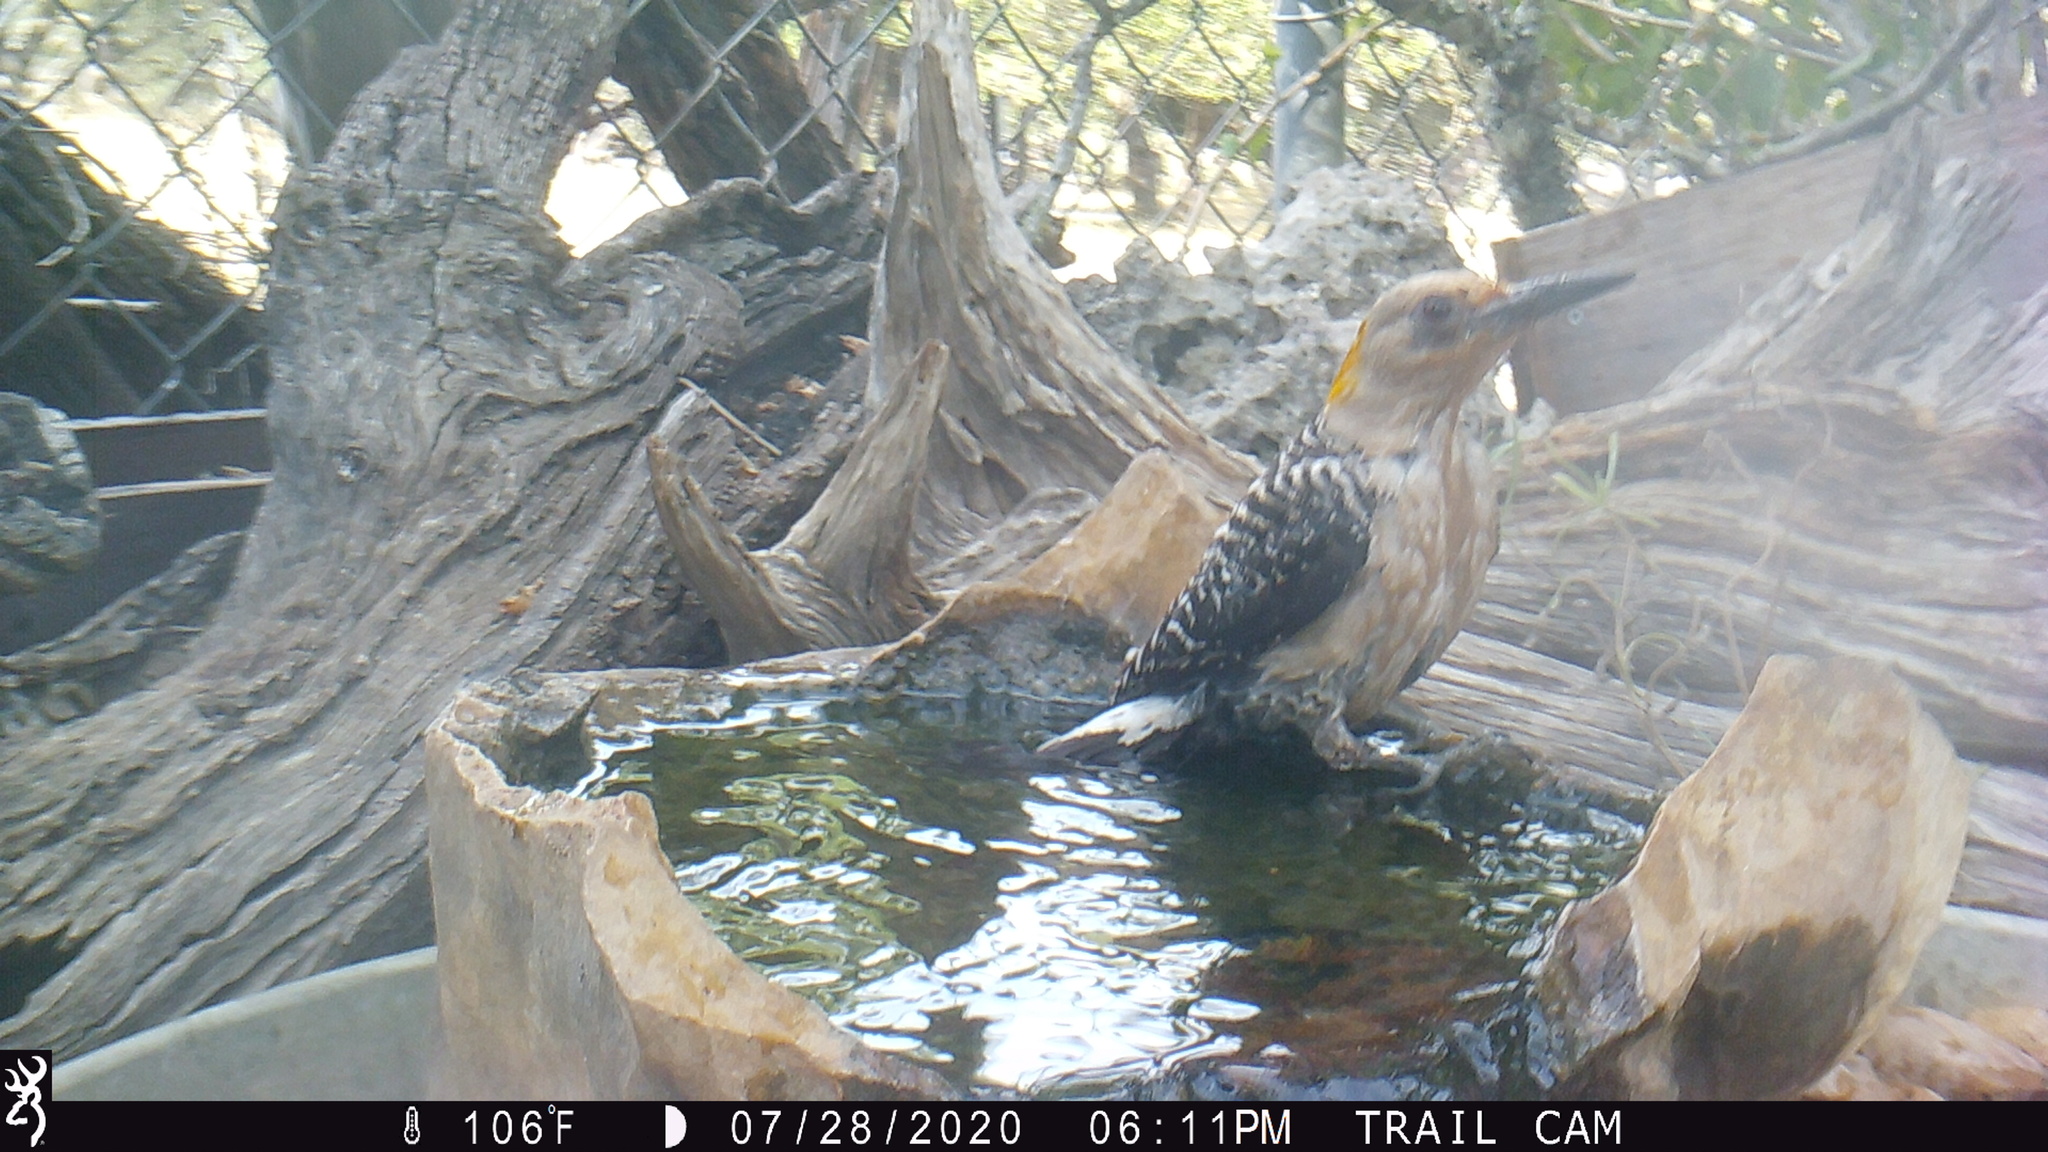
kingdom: Animalia
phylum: Chordata
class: Aves
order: Piciformes
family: Picidae
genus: Melanerpes
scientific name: Melanerpes aurifrons
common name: Golden-fronted woodpecker
